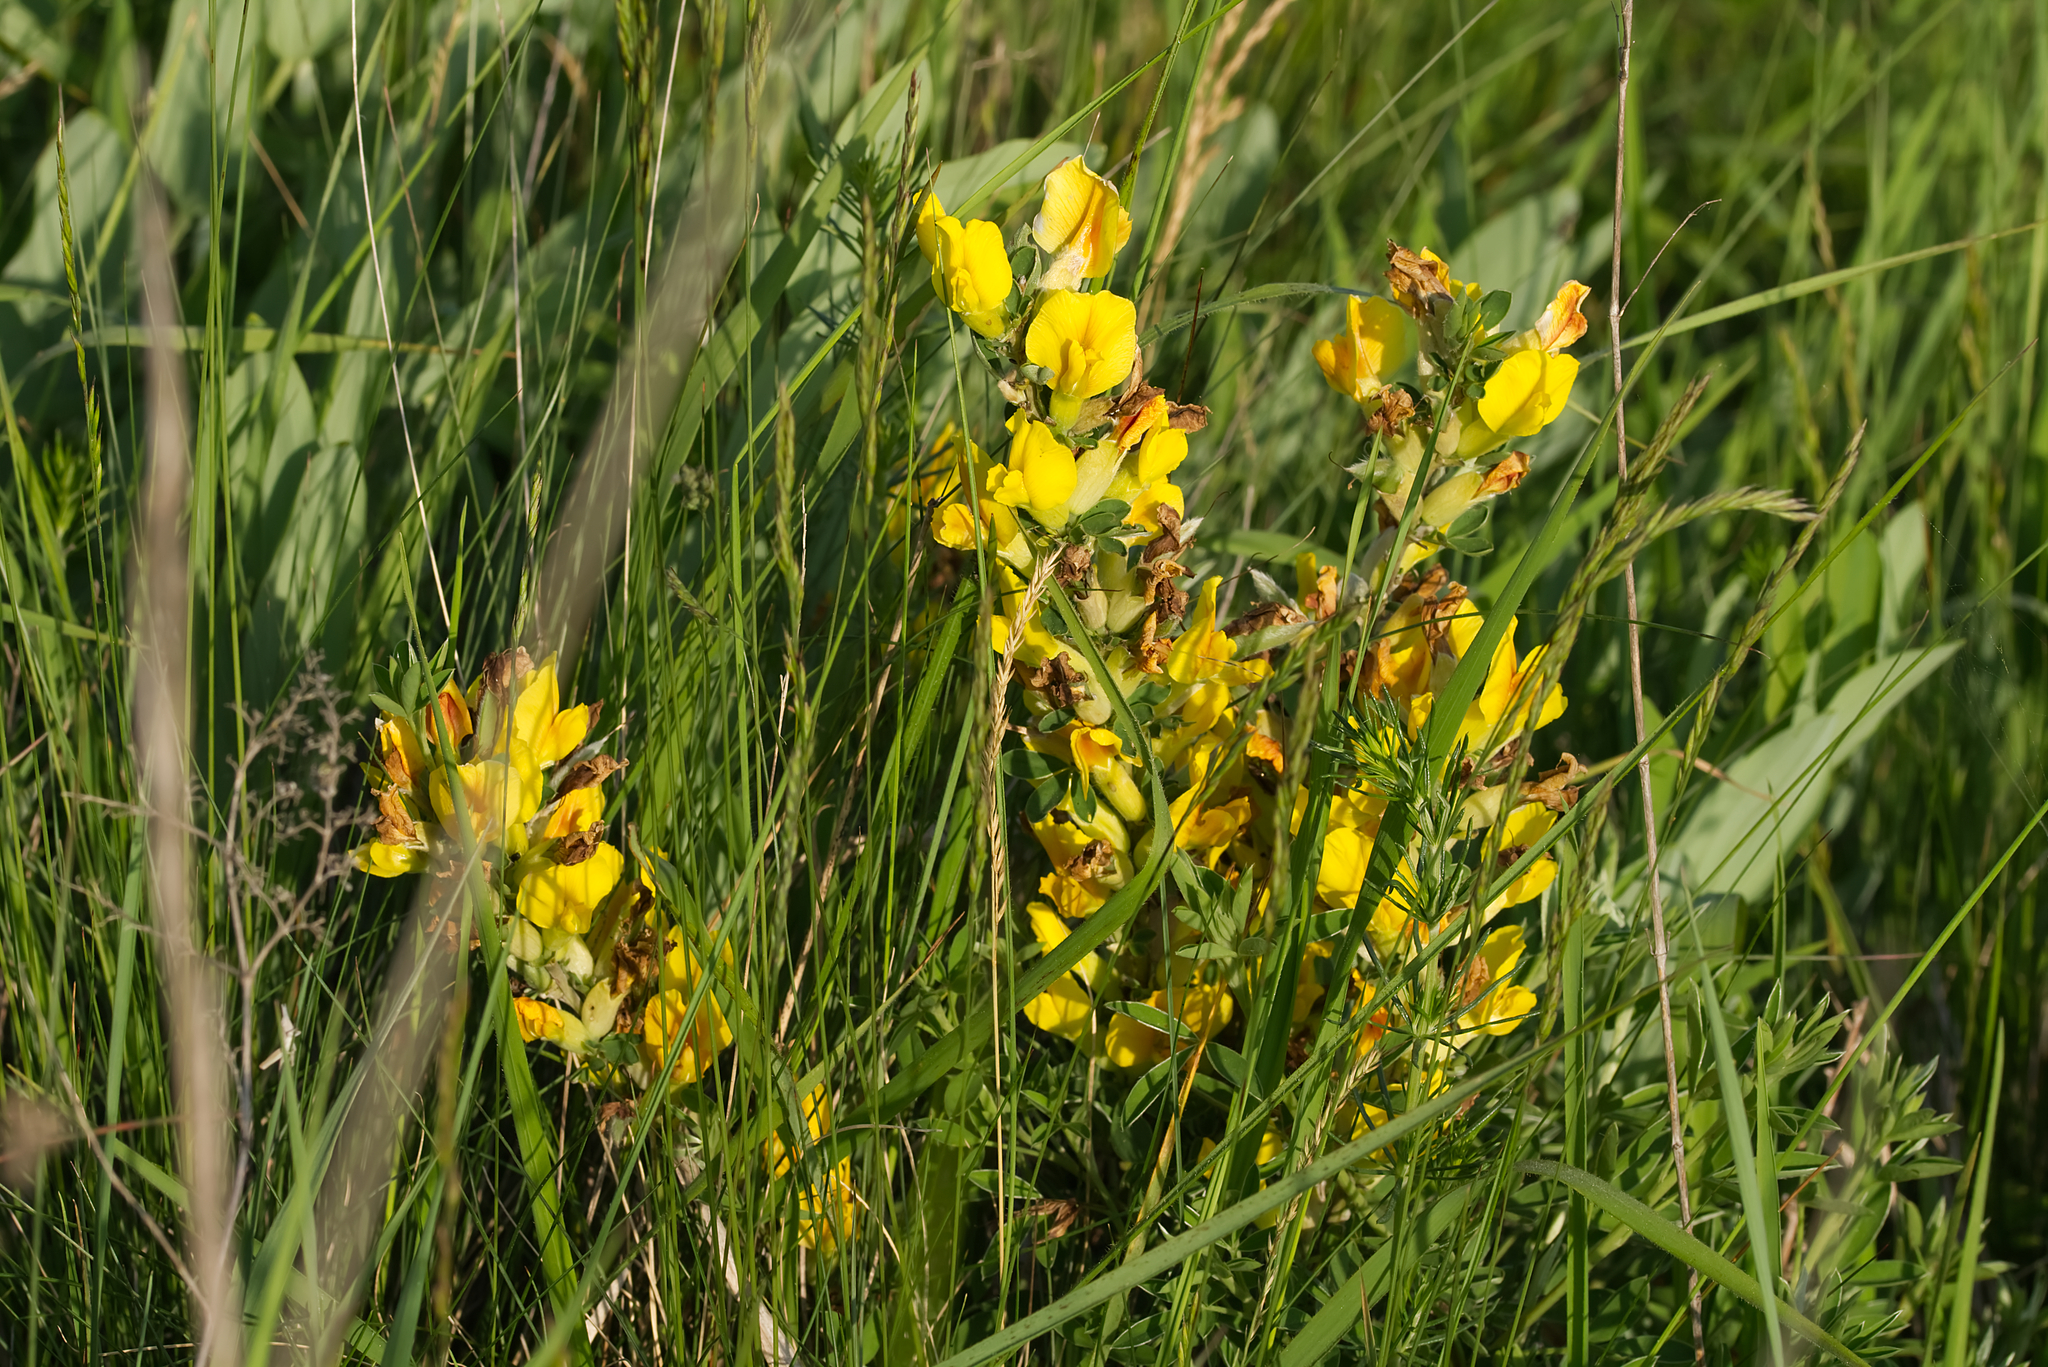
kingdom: Plantae
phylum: Tracheophyta
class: Magnoliopsida
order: Fabales
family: Fabaceae
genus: Chamaecytisus
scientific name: Chamaecytisus ratisbonensis
